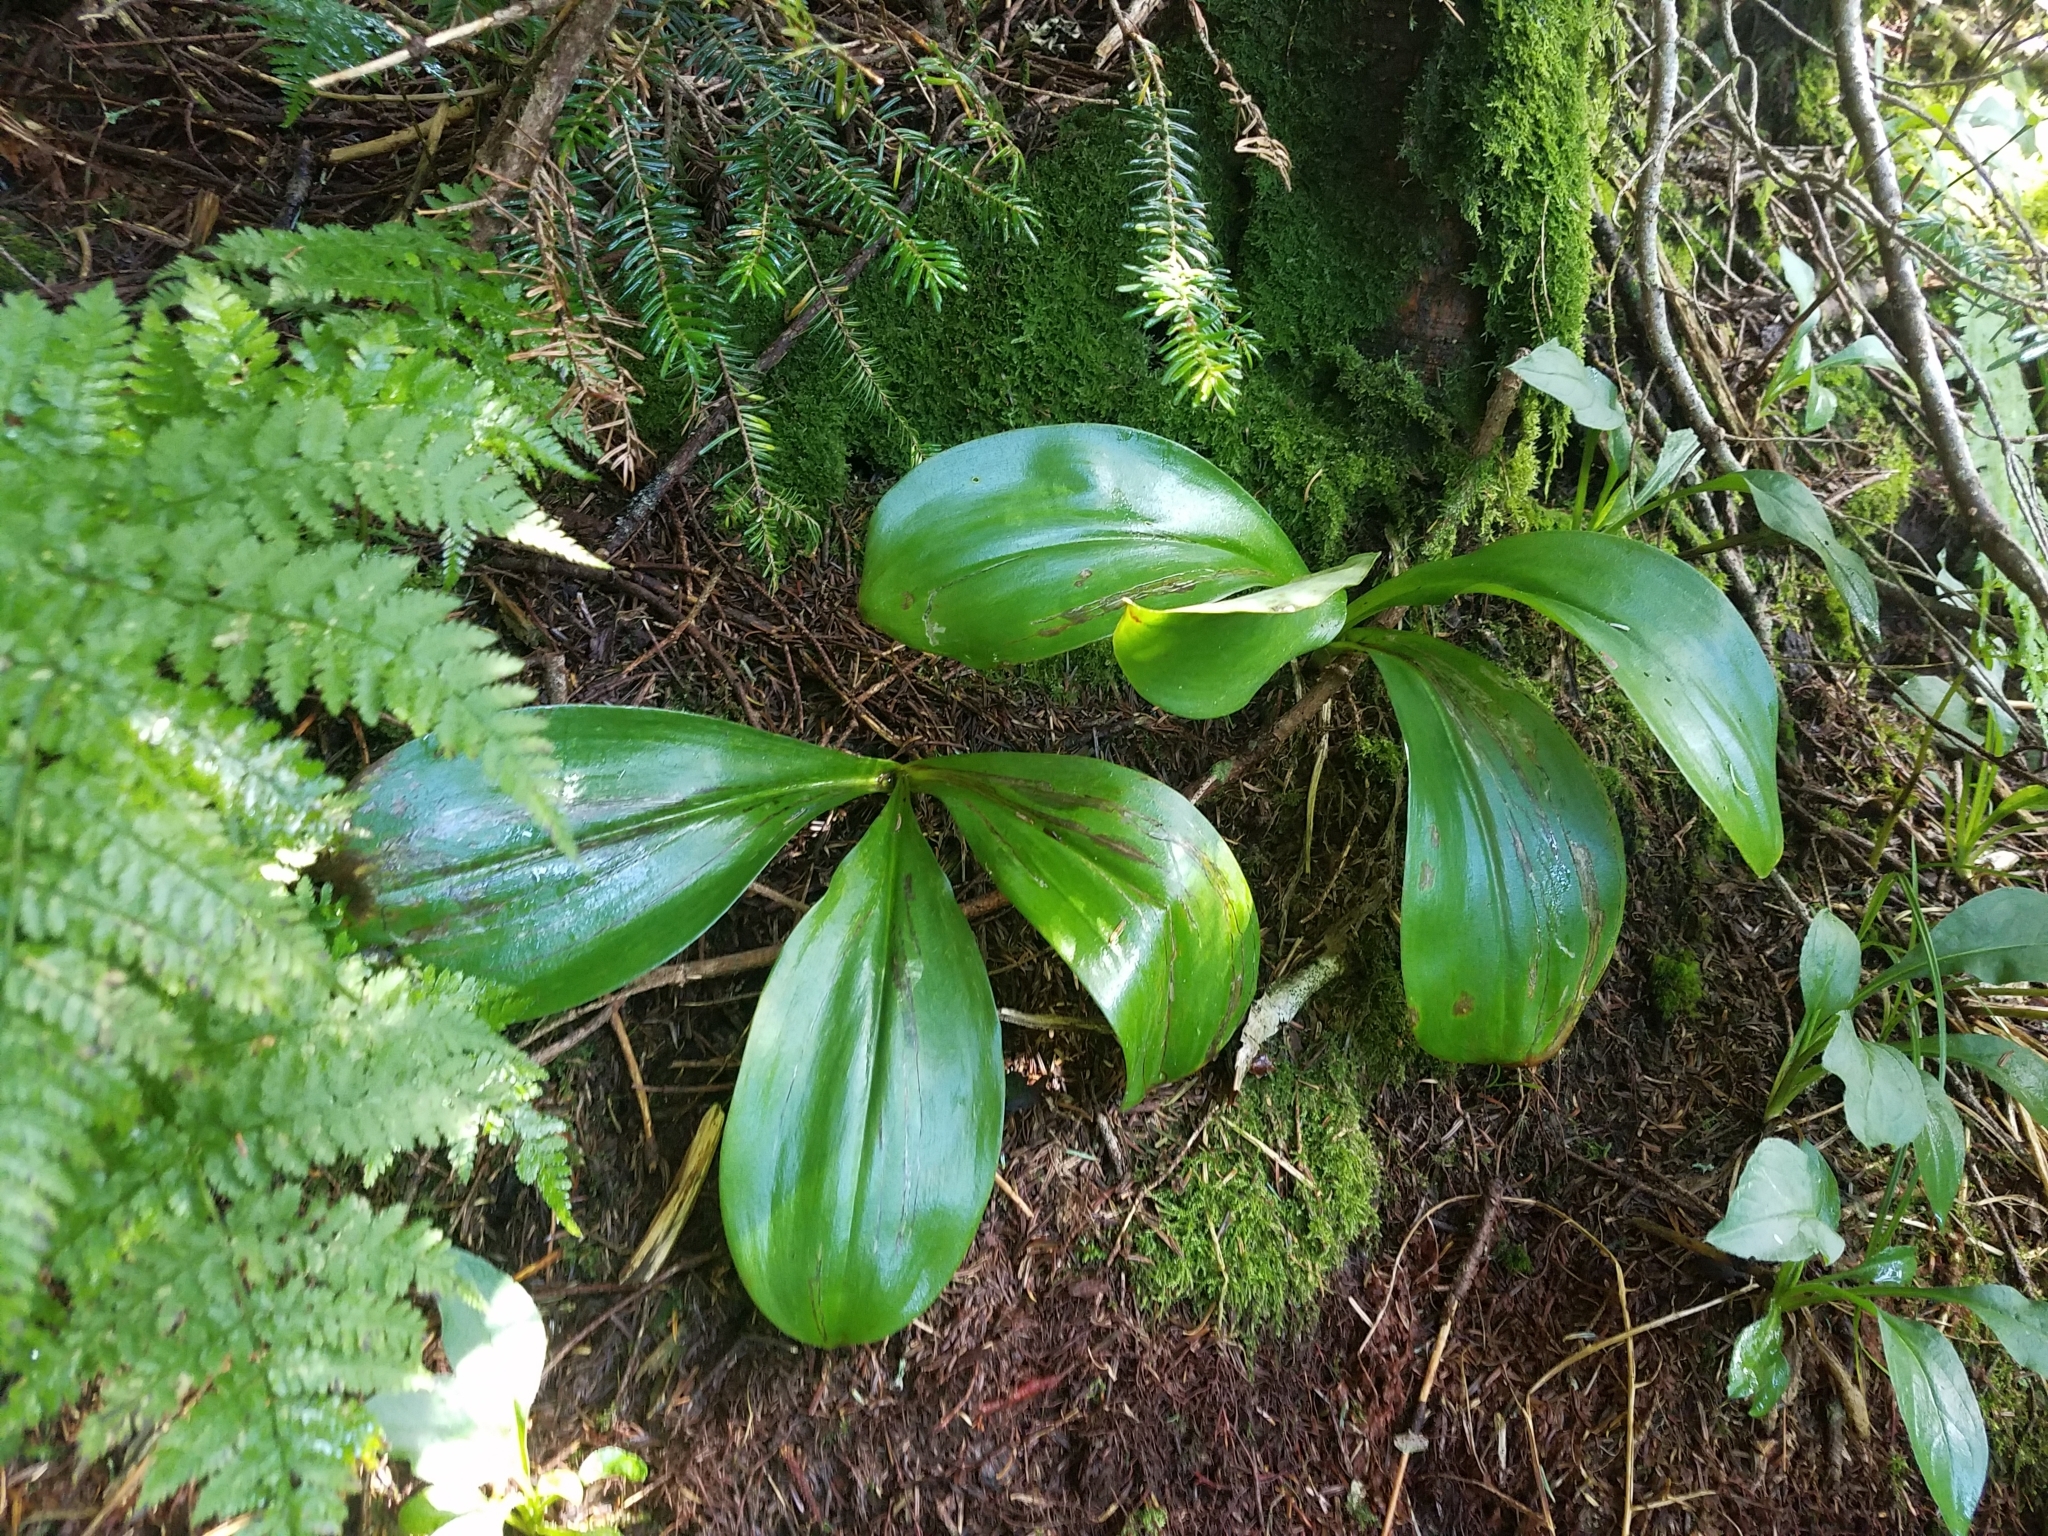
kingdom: Plantae
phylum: Tracheophyta
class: Liliopsida
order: Liliales
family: Liliaceae
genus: Clintonia
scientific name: Clintonia borealis
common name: Yellow clintonia
